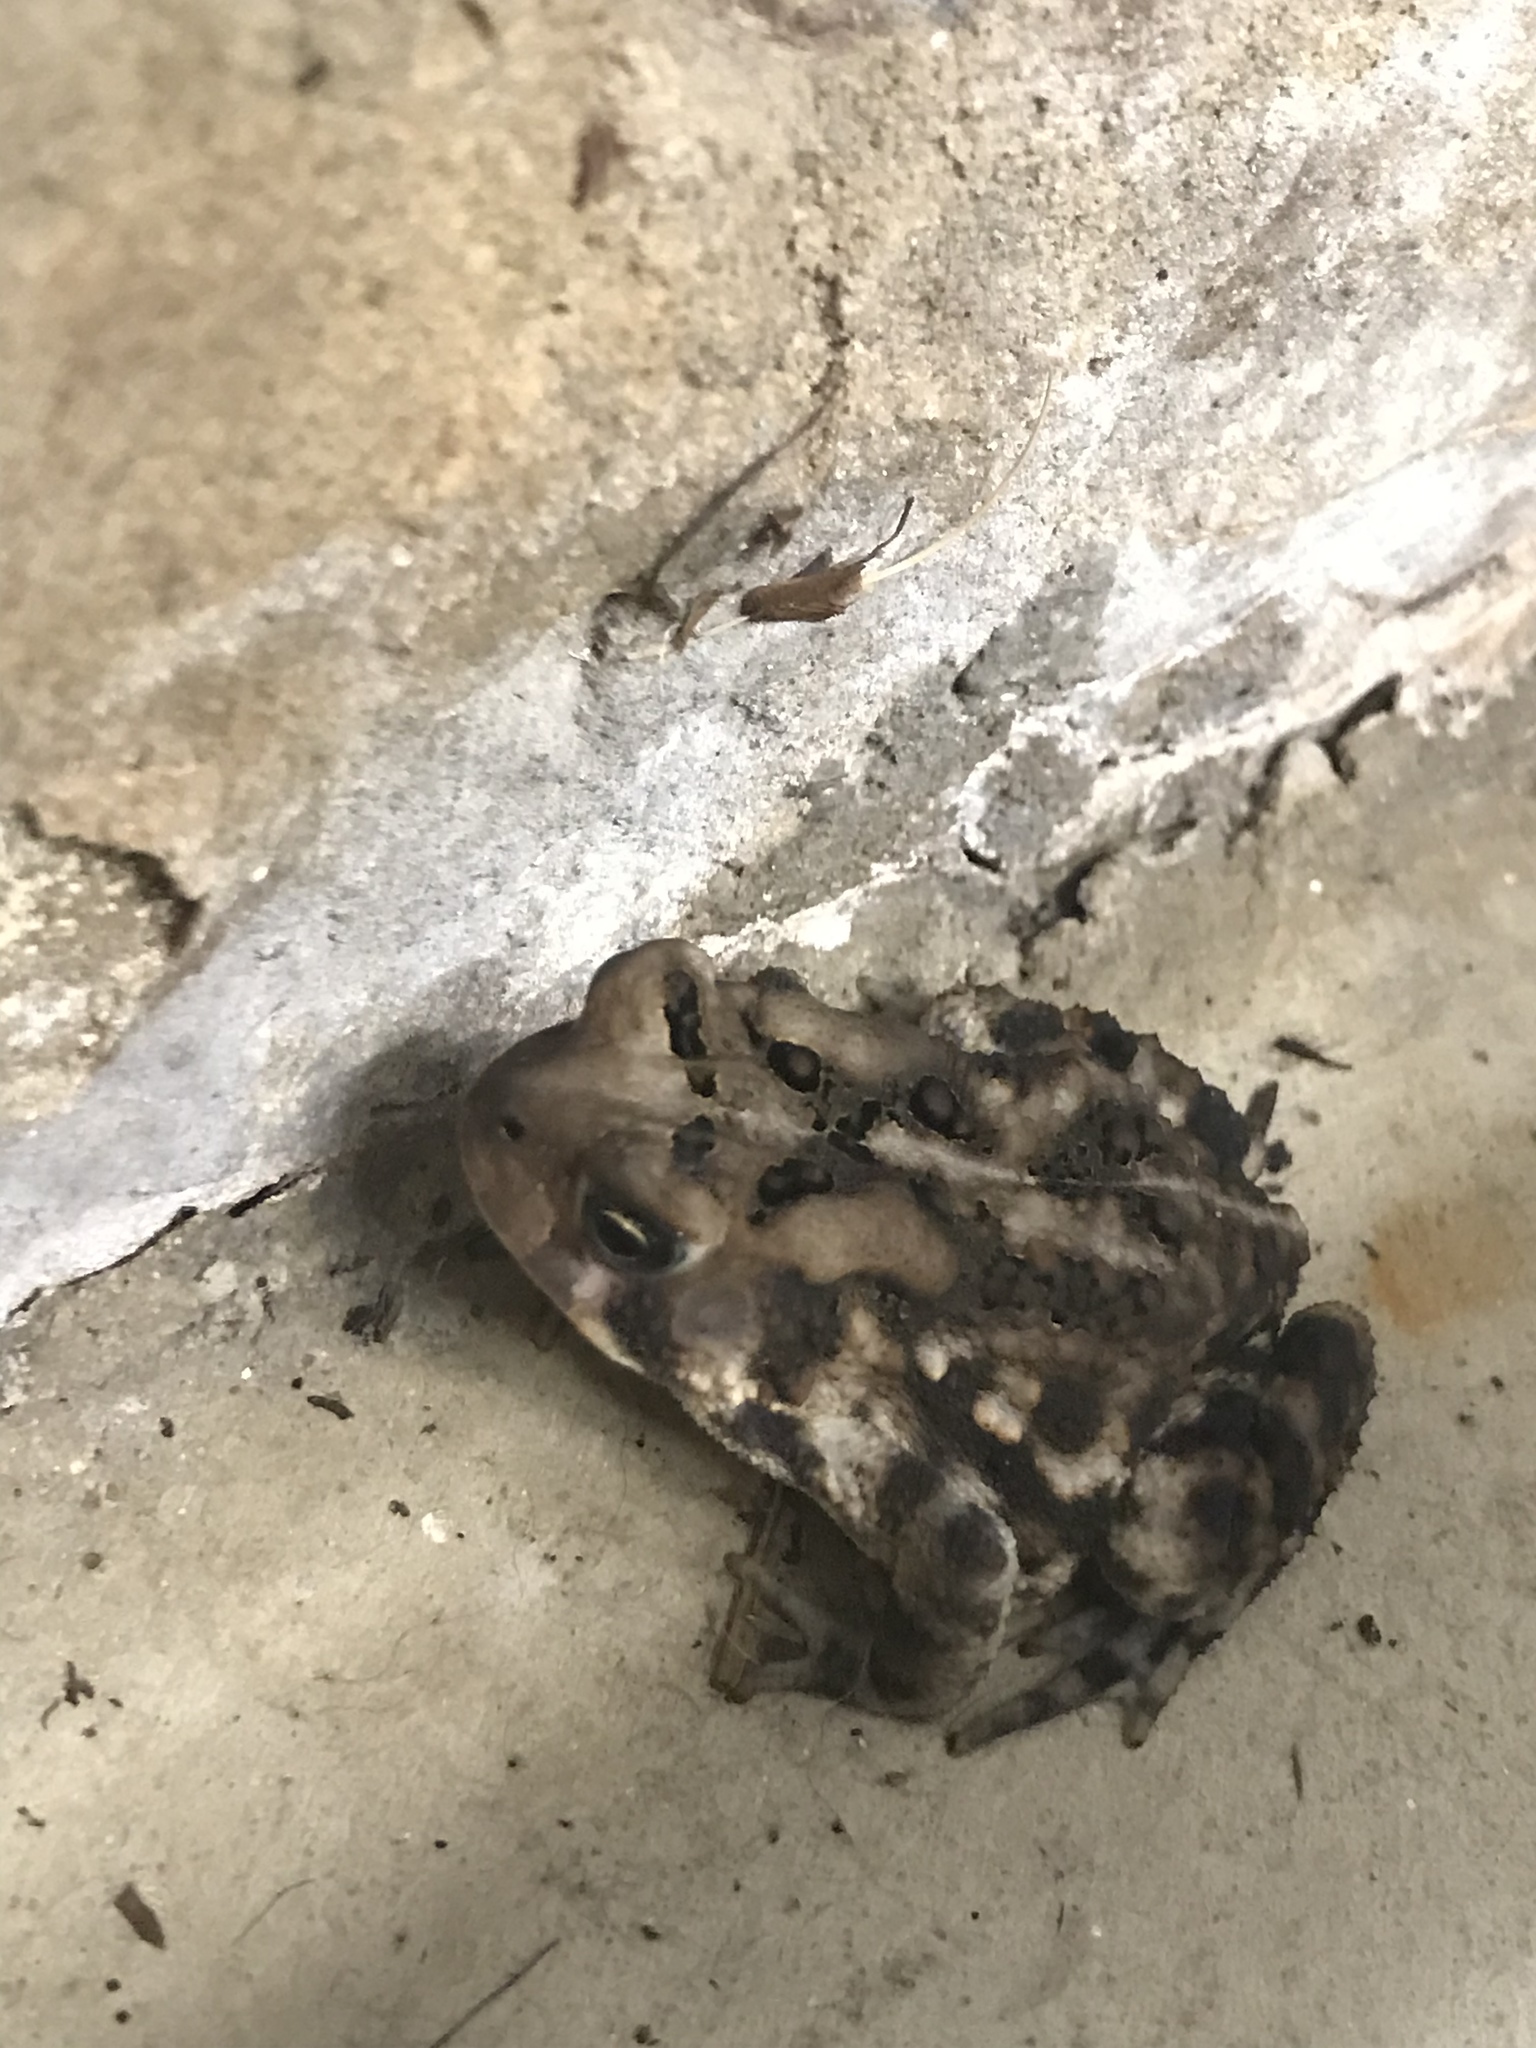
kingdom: Animalia
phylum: Chordata
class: Amphibia
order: Anura
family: Bufonidae
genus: Anaxyrus
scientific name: Anaxyrus americanus
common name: American toad
